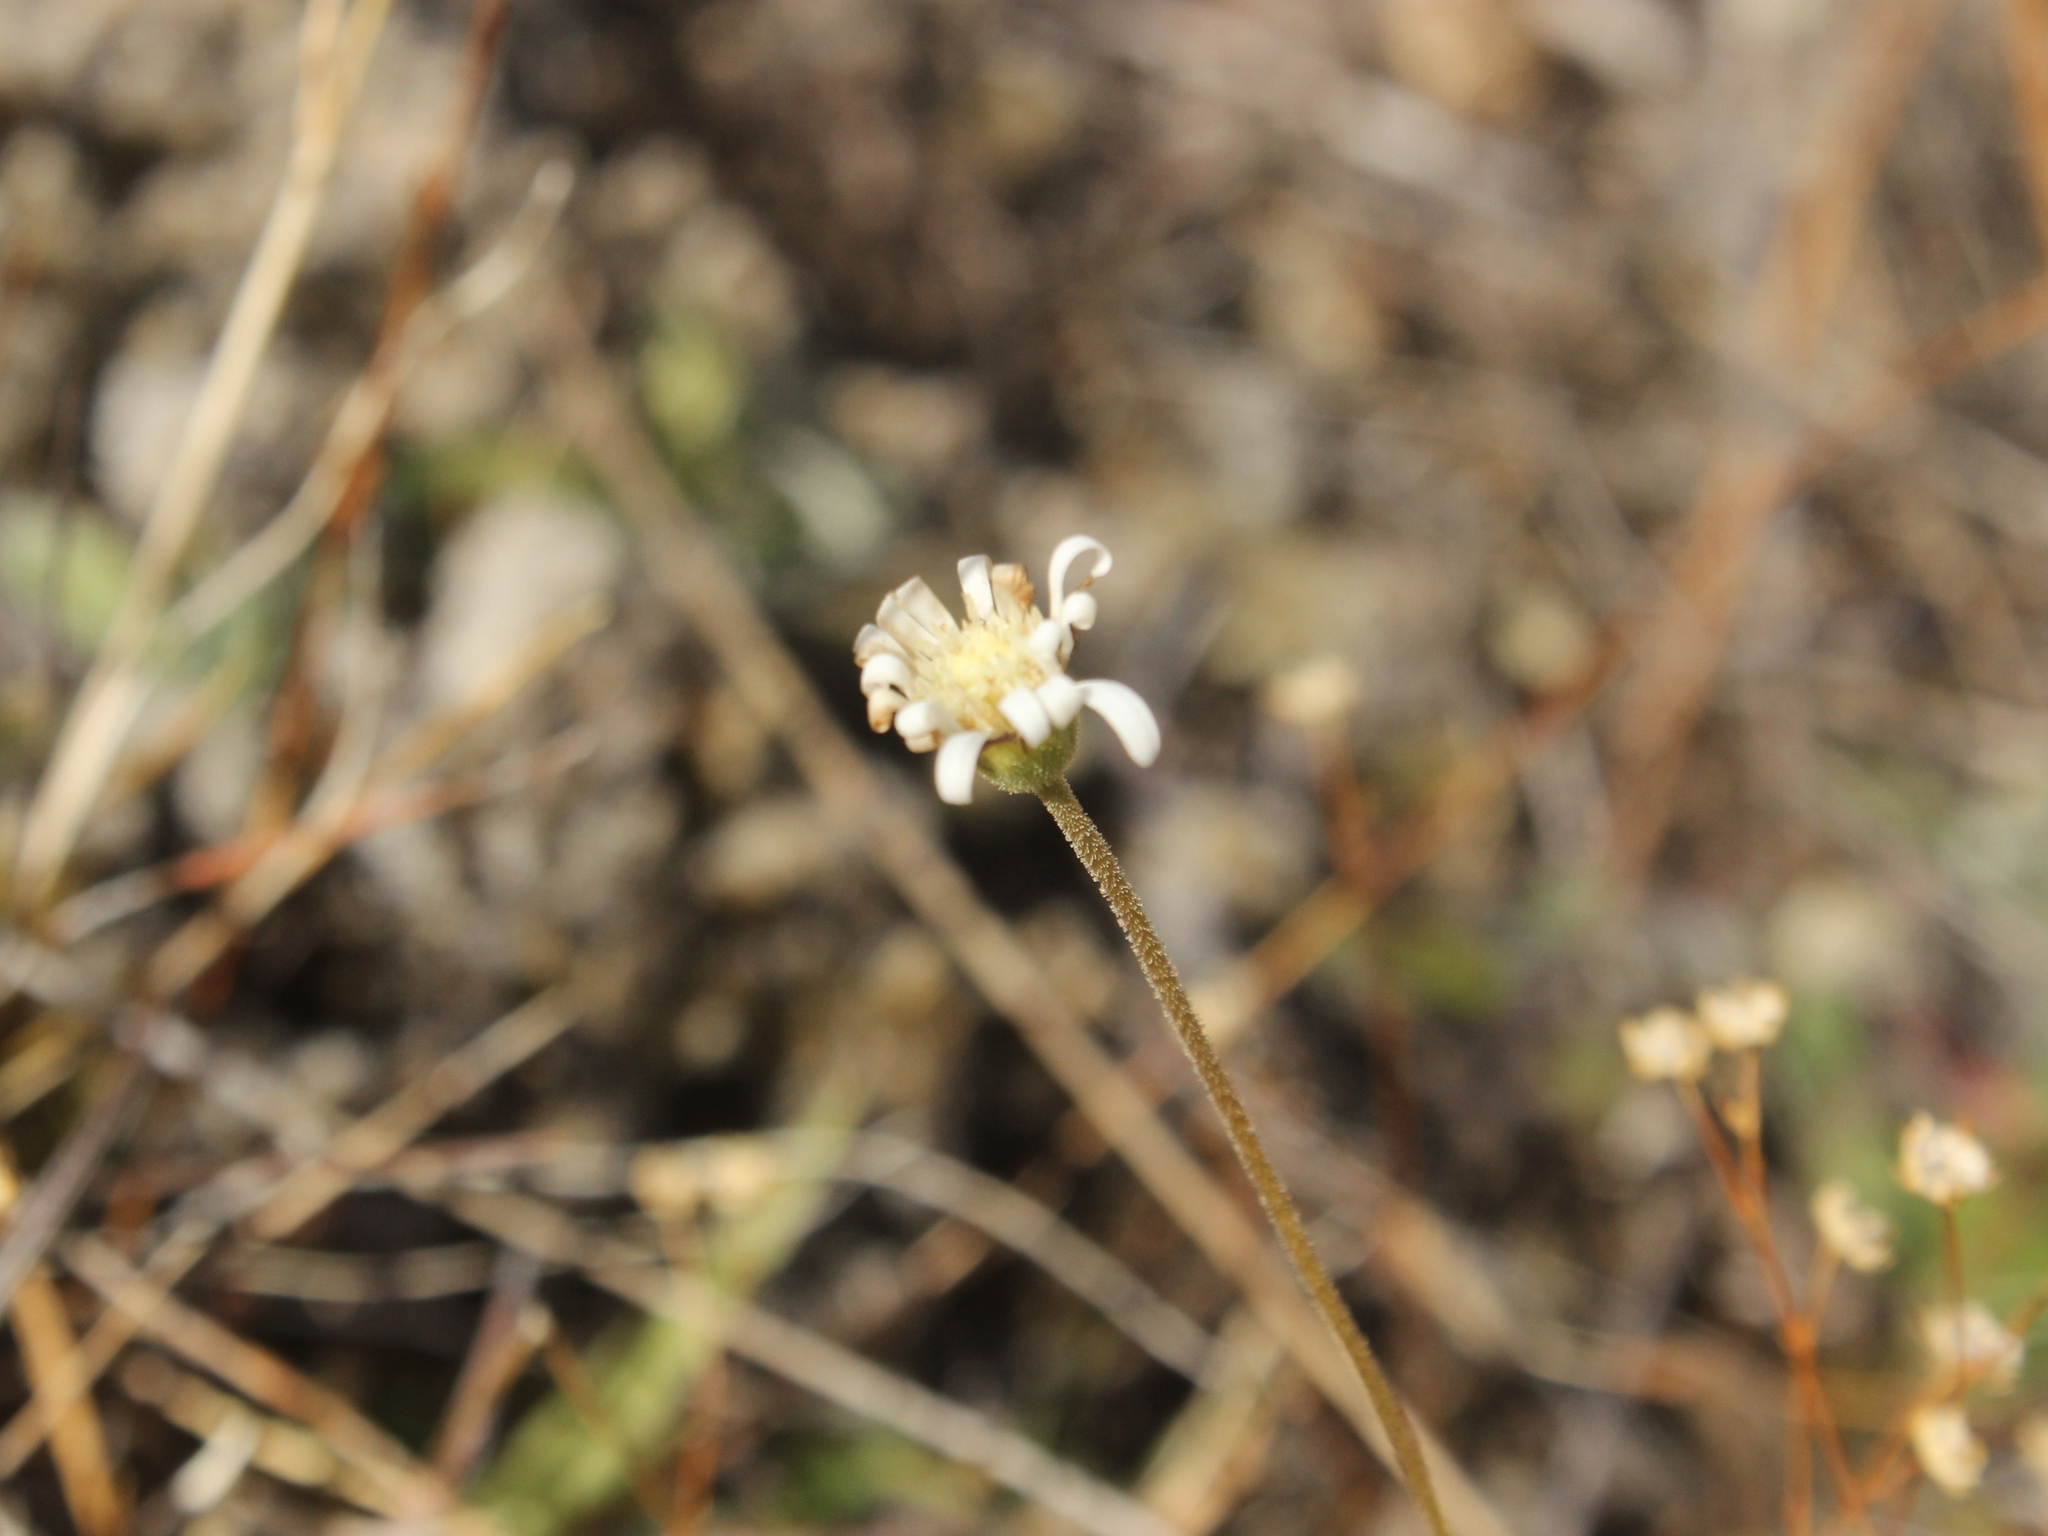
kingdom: Plantae
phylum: Tracheophyta
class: Magnoliopsida
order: Asterales
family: Asteraceae
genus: Brachyscome
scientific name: Brachyscome longiscapa
